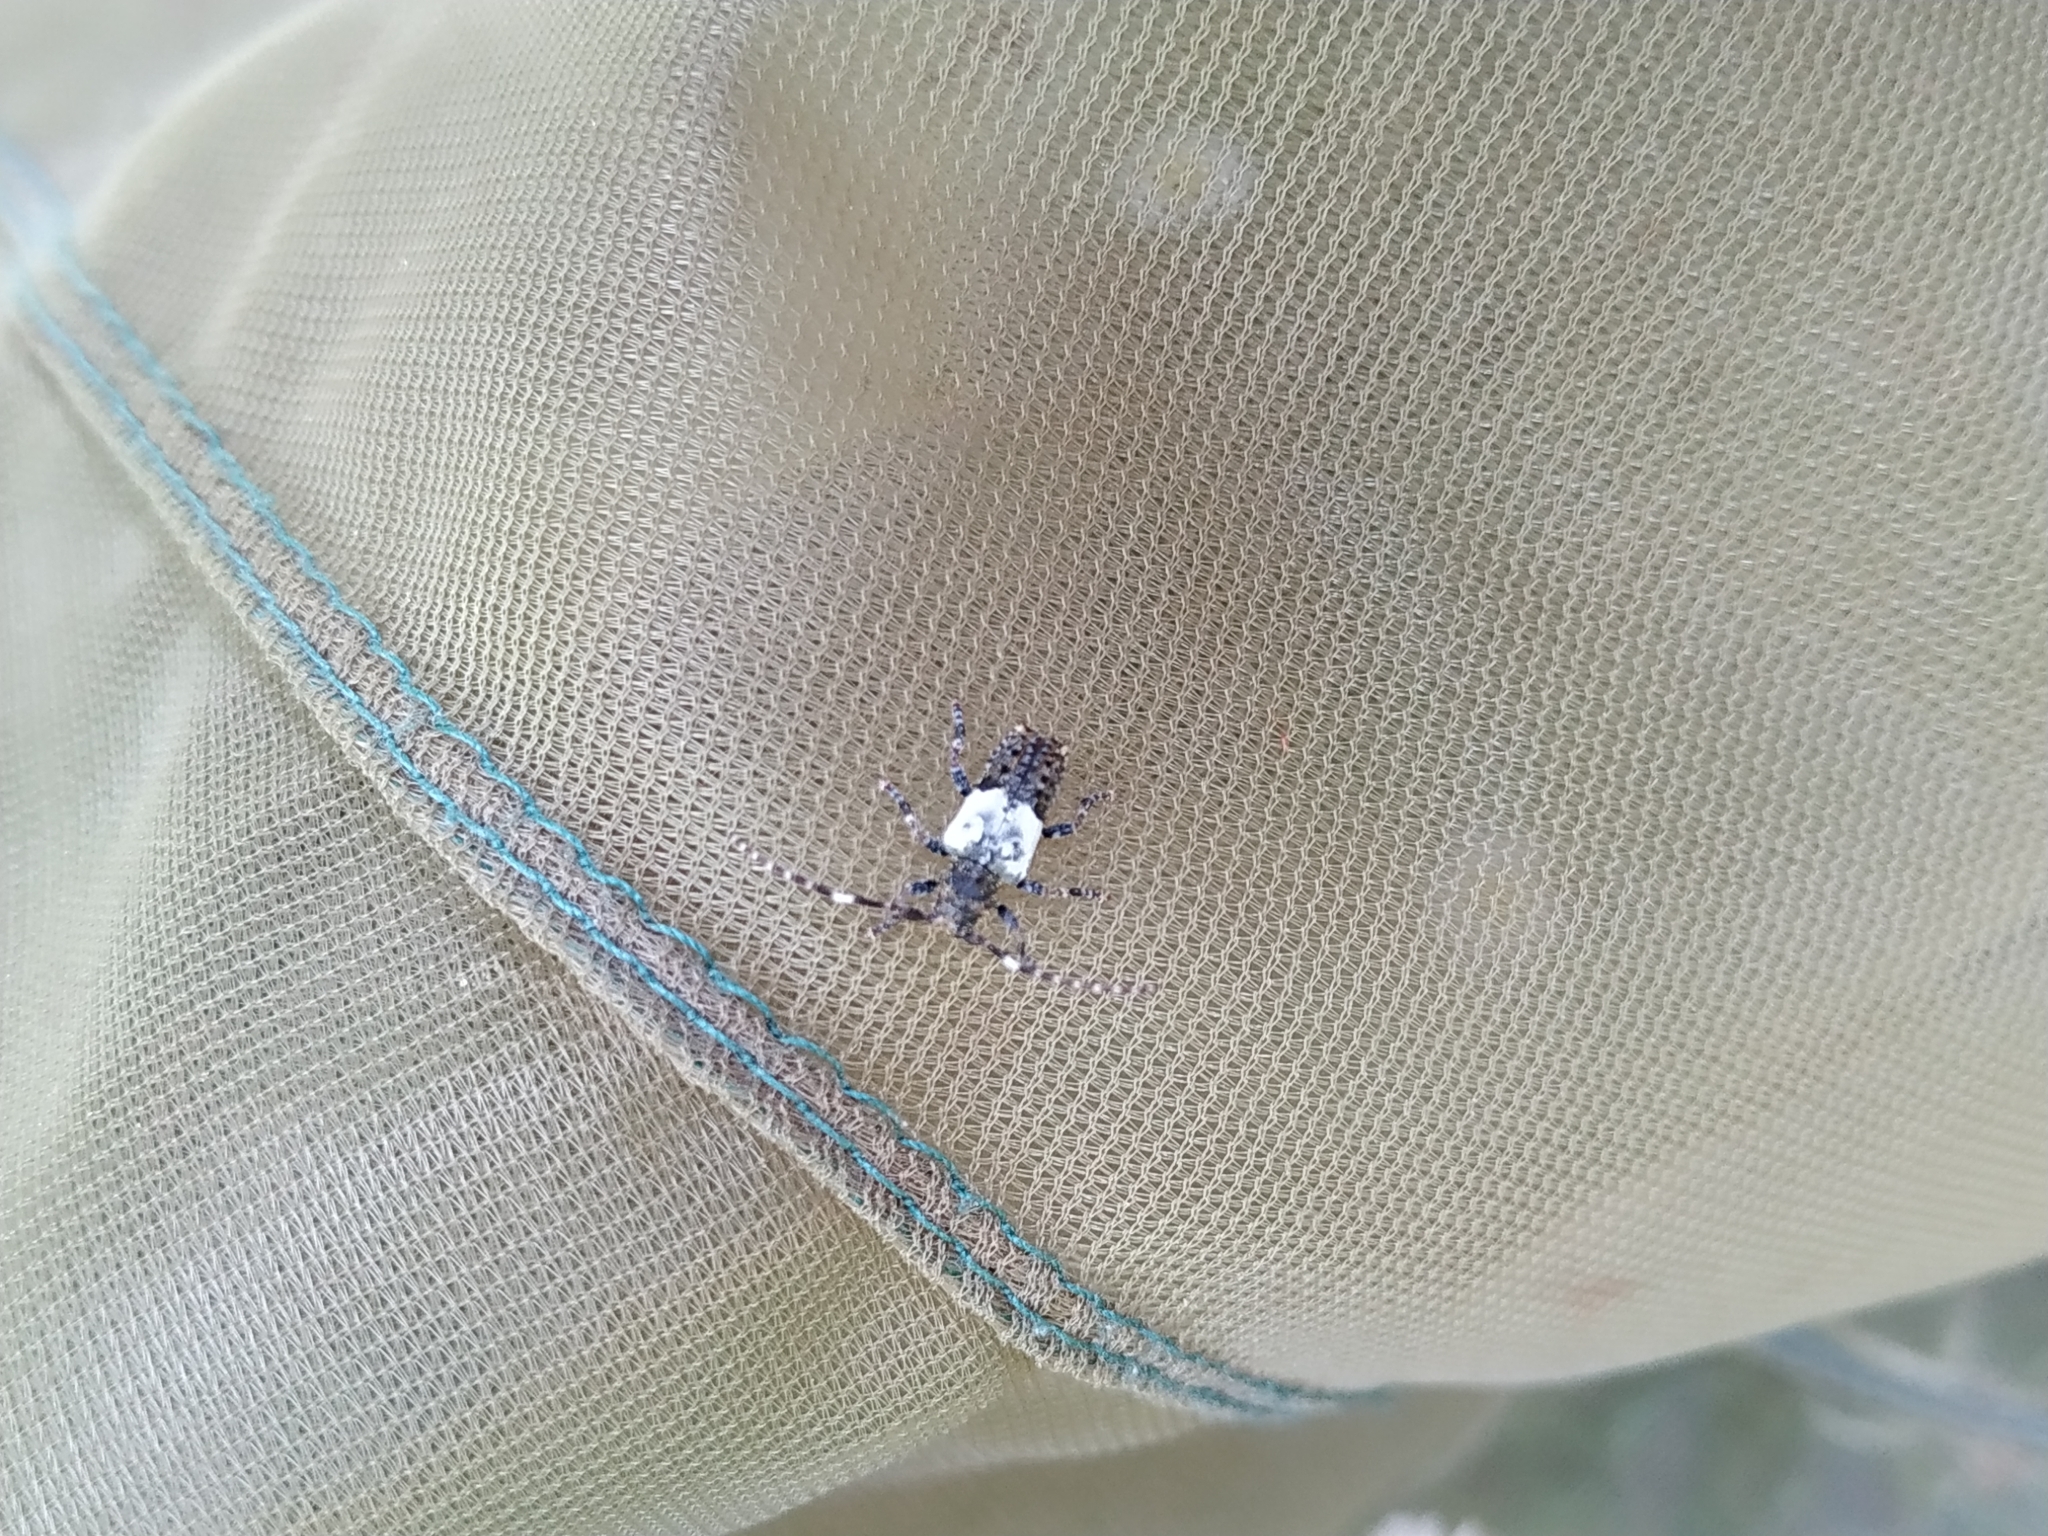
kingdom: Animalia
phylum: Arthropoda
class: Insecta
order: Coleoptera
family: Cerambycidae
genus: Pogonocherus
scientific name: Pogonocherus hispidulus
